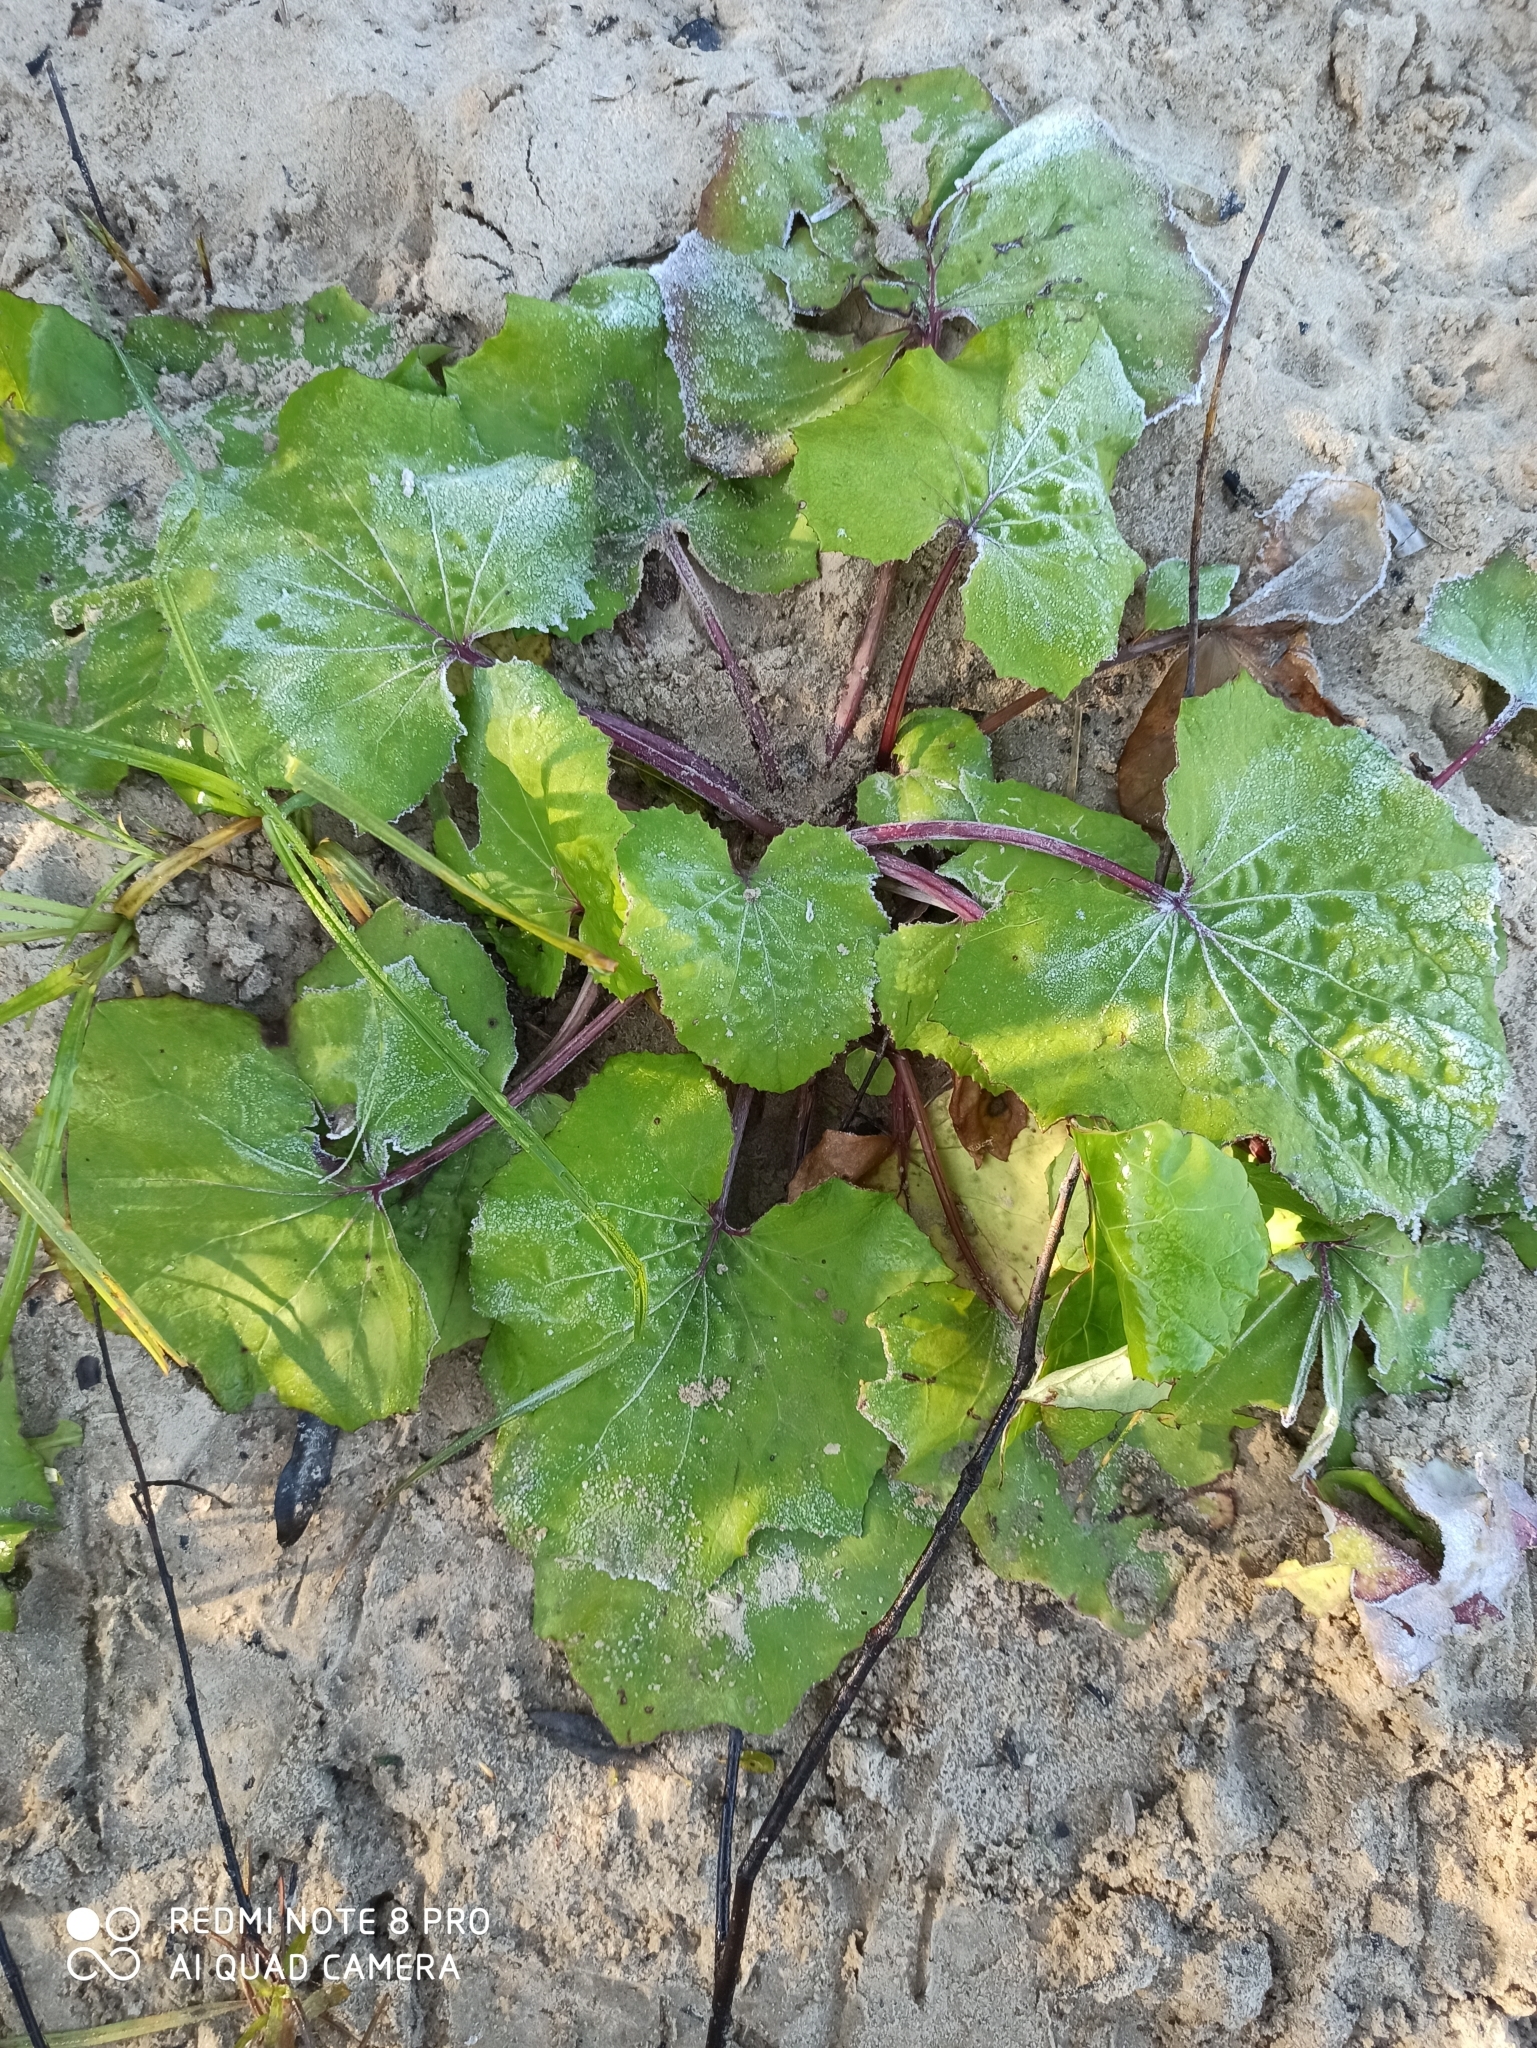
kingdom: Plantae
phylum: Tracheophyta
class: Magnoliopsida
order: Asterales
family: Asteraceae
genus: Tussilago
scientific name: Tussilago farfara
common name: Coltsfoot
